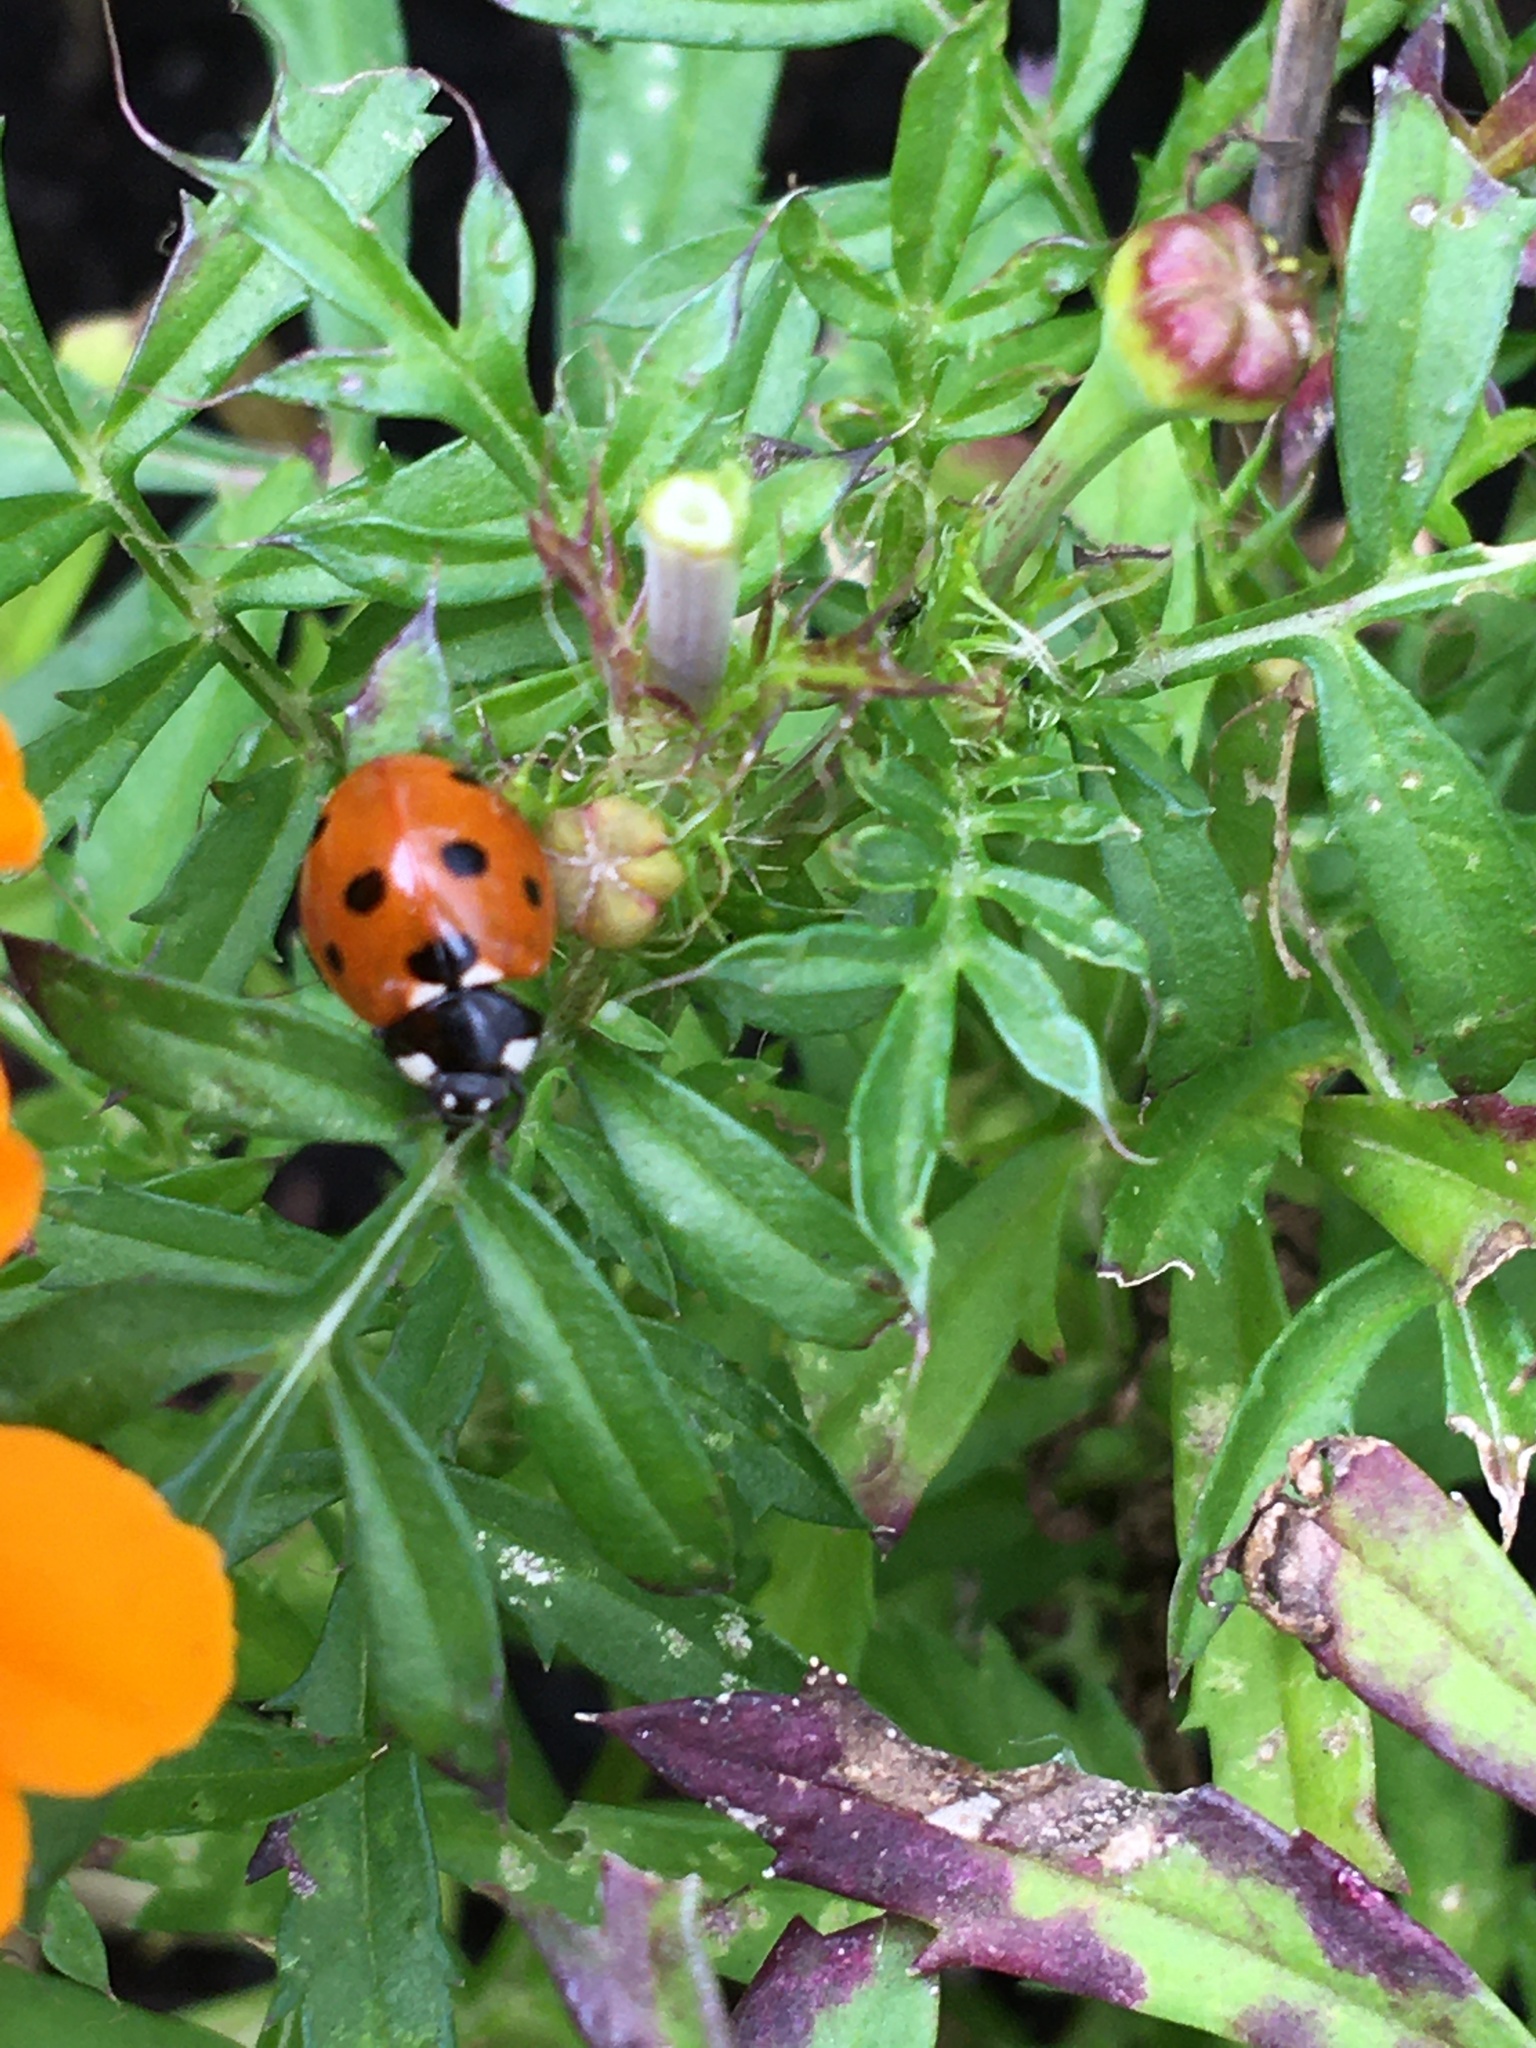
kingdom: Animalia
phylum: Arthropoda
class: Insecta
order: Coleoptera
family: Coccinellidae
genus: Coccinella
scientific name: Coccinella septempunctata
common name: Sevenspotted lady beetle
